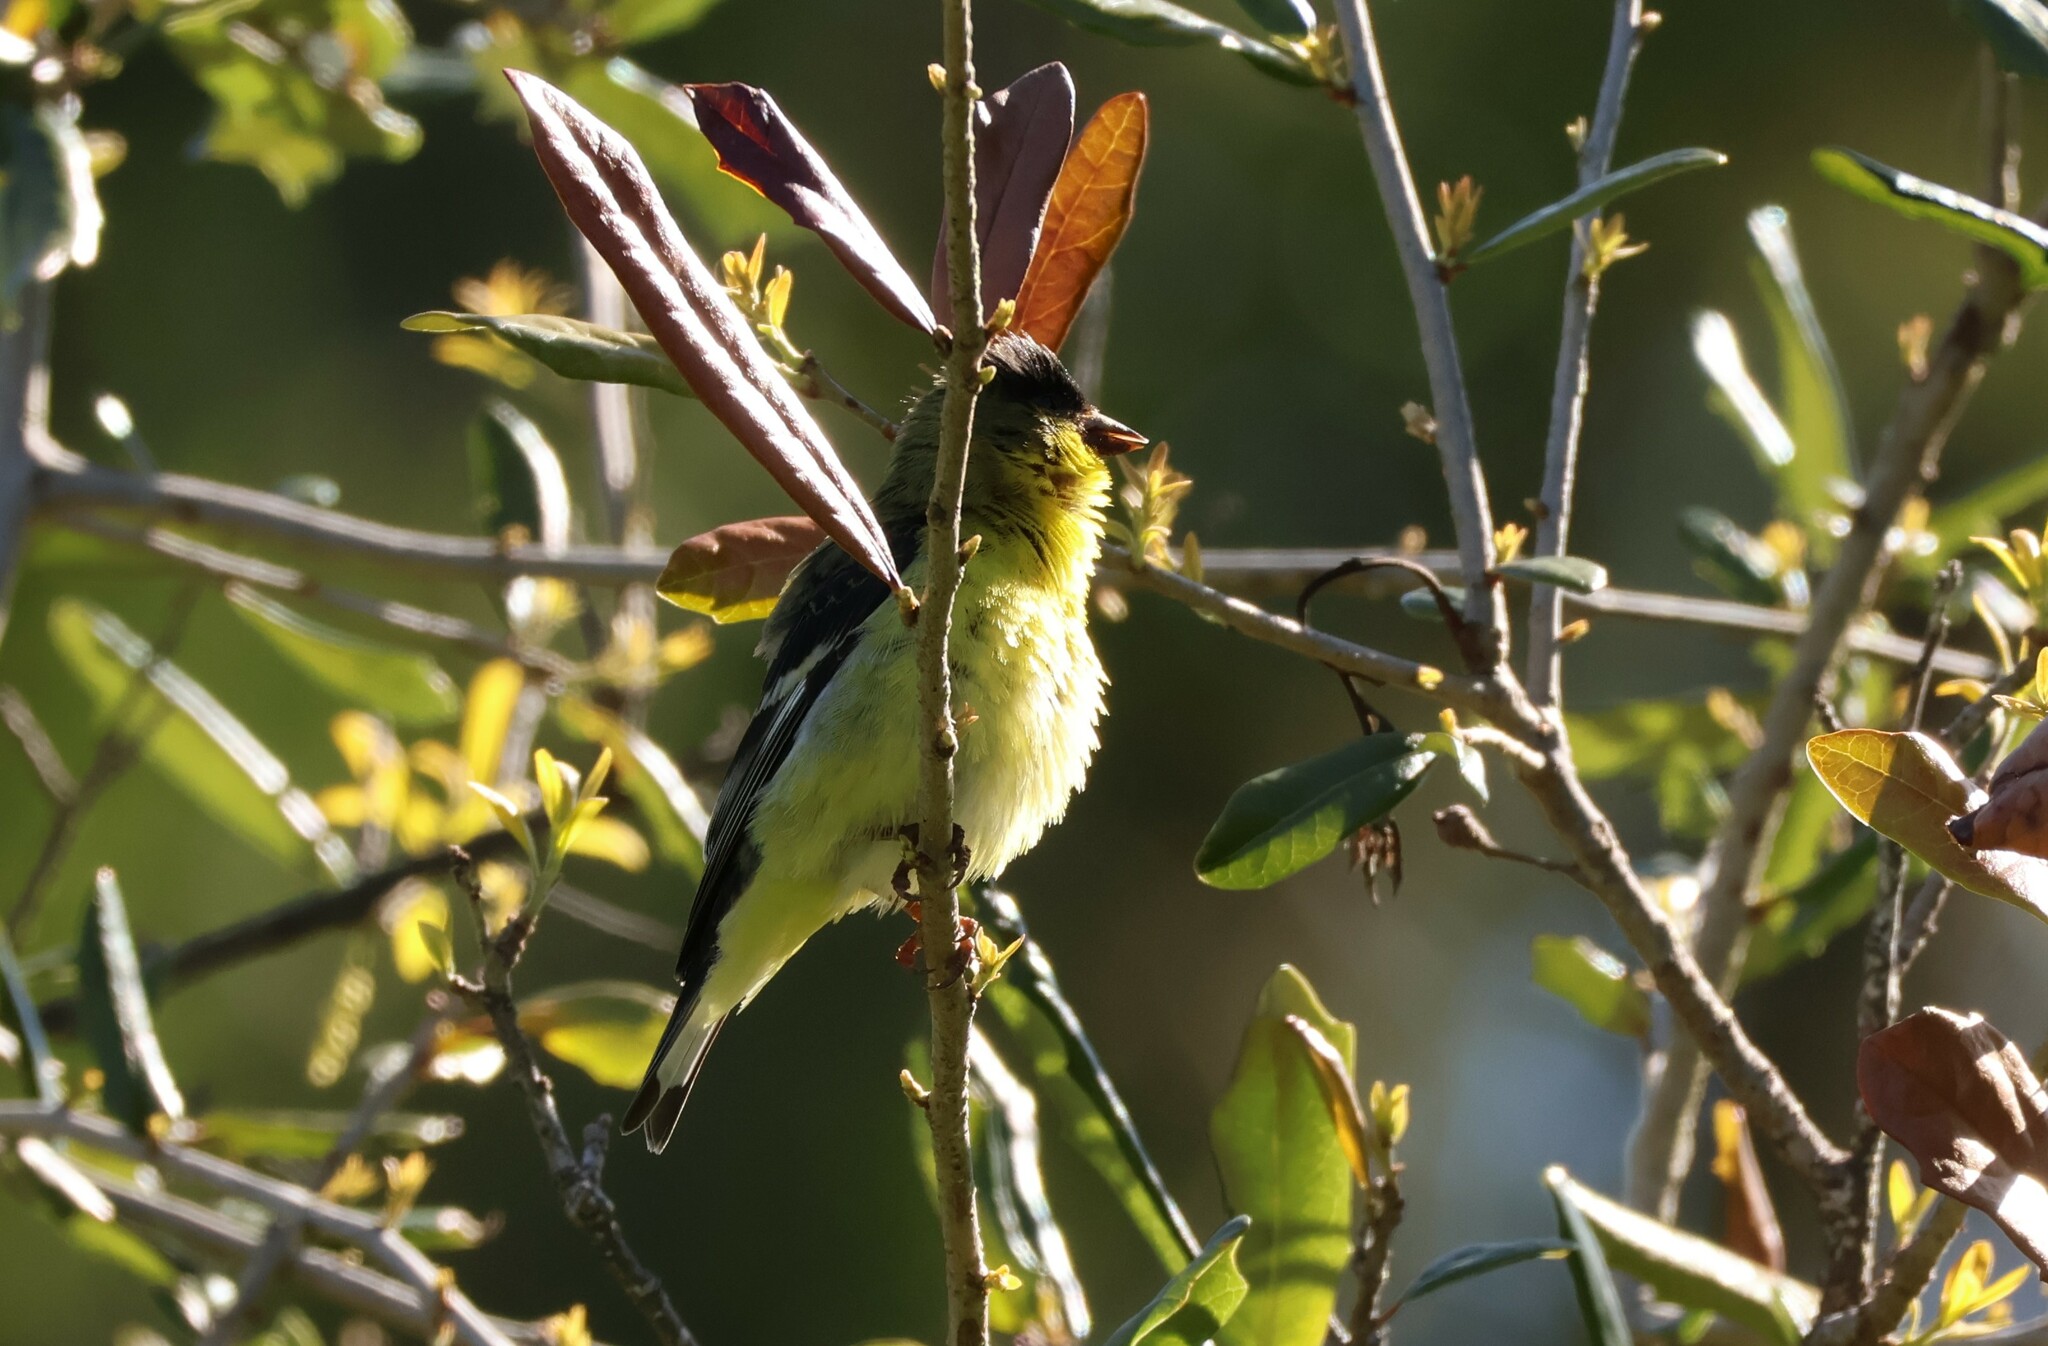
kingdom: Animalia
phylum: Chordata
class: Aves
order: Passeriformes
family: Fringillidae
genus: Spinus
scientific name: Spinus psaltria
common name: Lesser goldfinch
